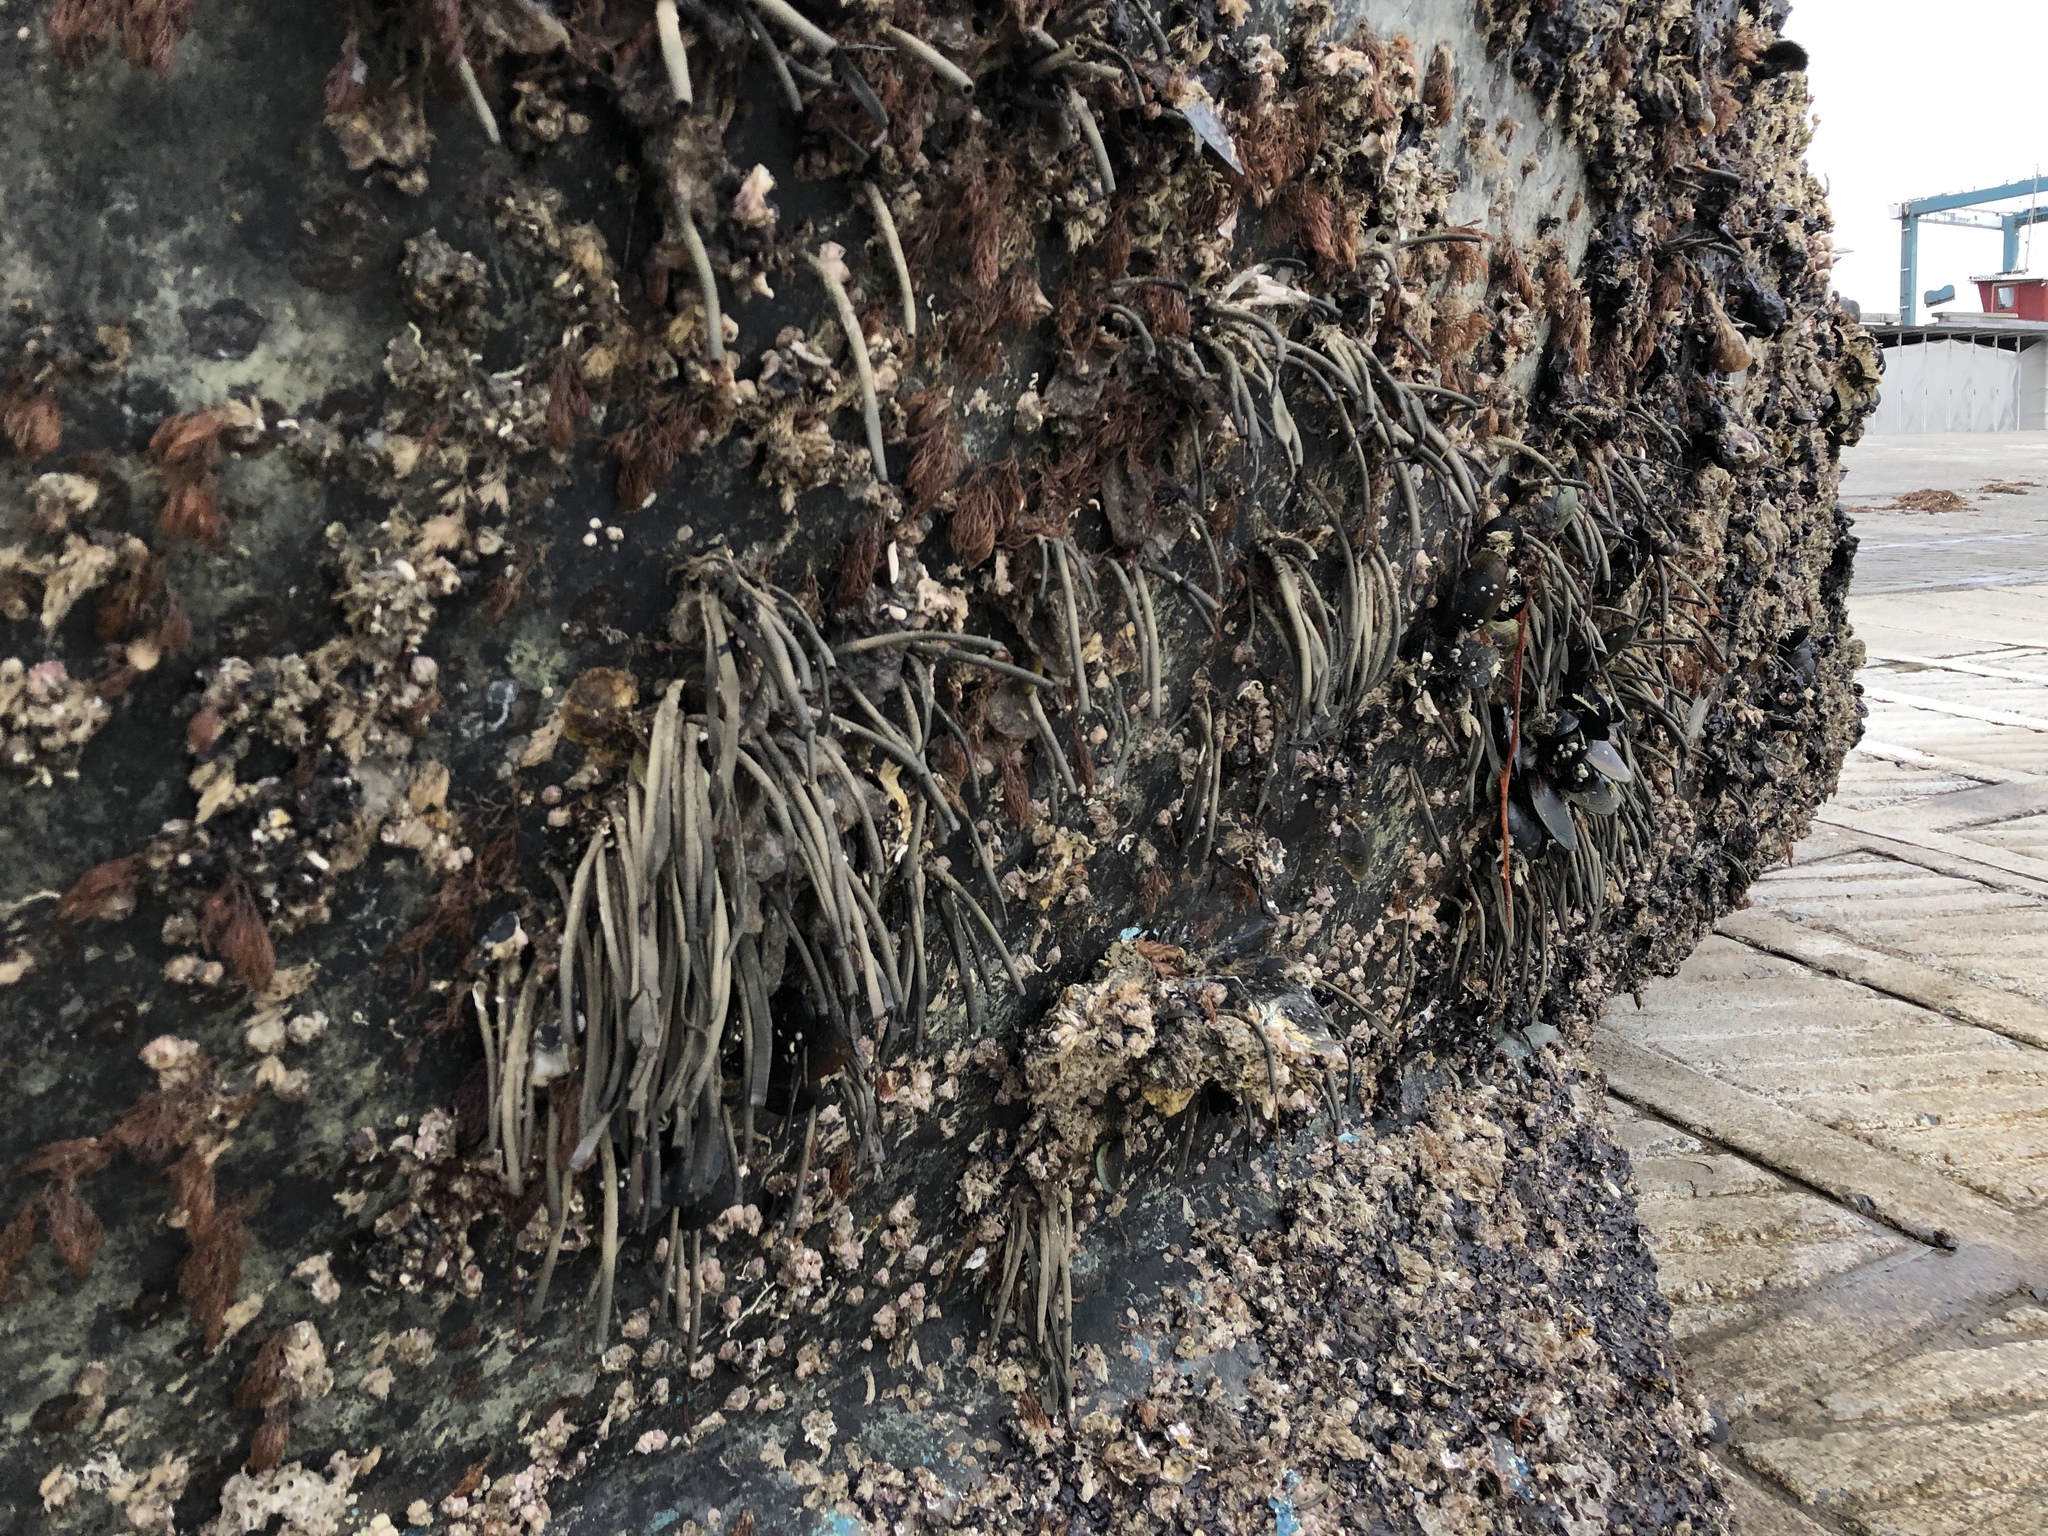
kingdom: Animalia
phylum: Annelida
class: Polychaeta
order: Sabellida
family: Sabellidae
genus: Sabella
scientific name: Sabella spallanzanii
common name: Feather duster worm
